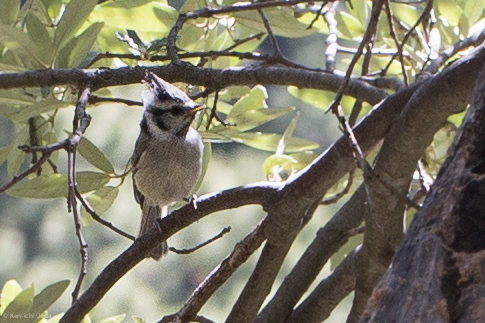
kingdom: Animalia
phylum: Chordata
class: Aves
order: Passeriformes
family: Paridae
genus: Baeolophus
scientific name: Baeolophus wollweberi
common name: Bridled titmouse
